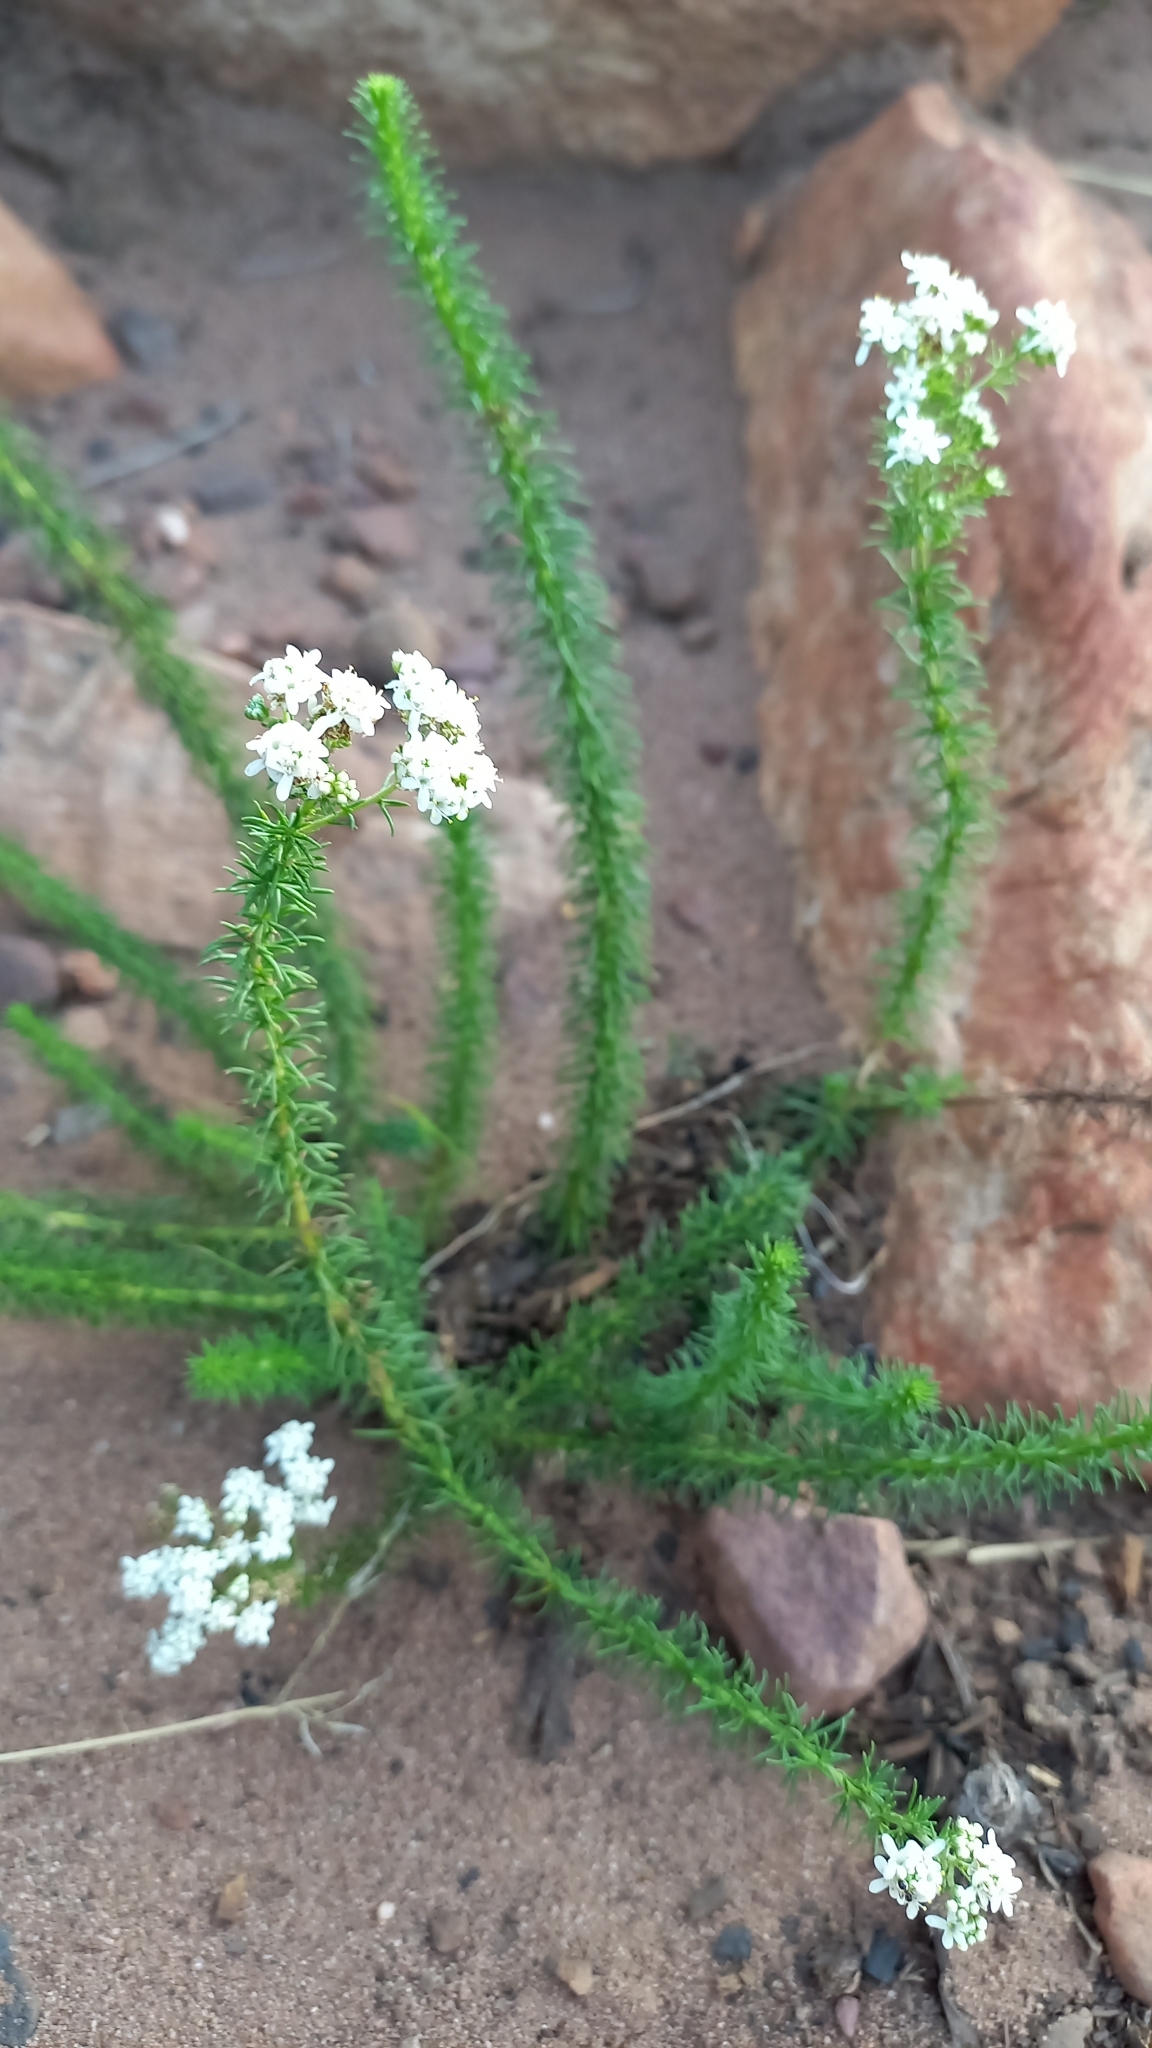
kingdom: Plantae
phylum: Tracheophyta
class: Magnoliopsida
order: Lamiales
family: Scrophulariaceae
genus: Selago
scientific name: Selago corymbosa
